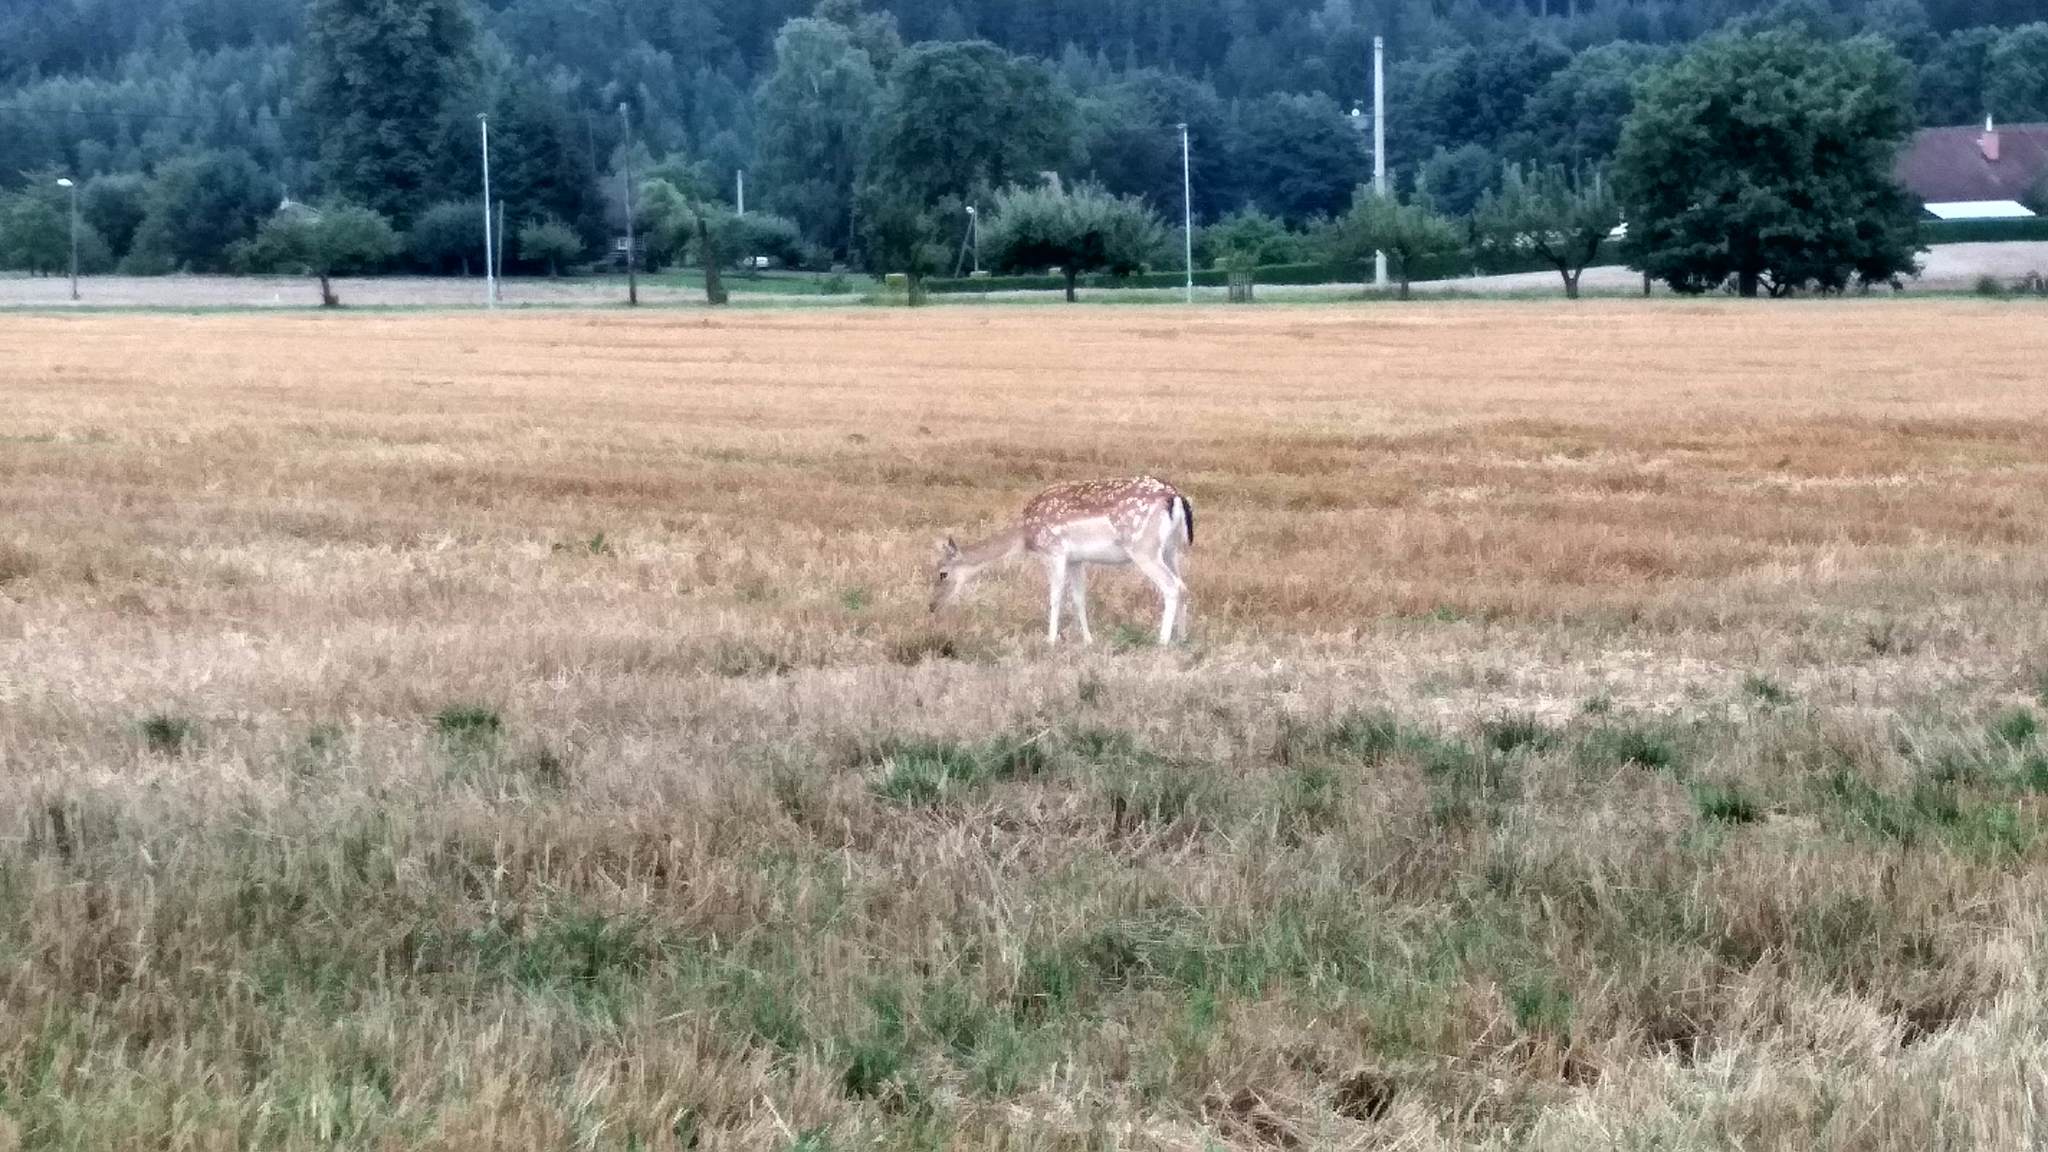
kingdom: Animalia
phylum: Chordata
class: Mammalia
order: Artiodactyla
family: Cervidae
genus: Dama
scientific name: Dama dama
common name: Fallow deer
